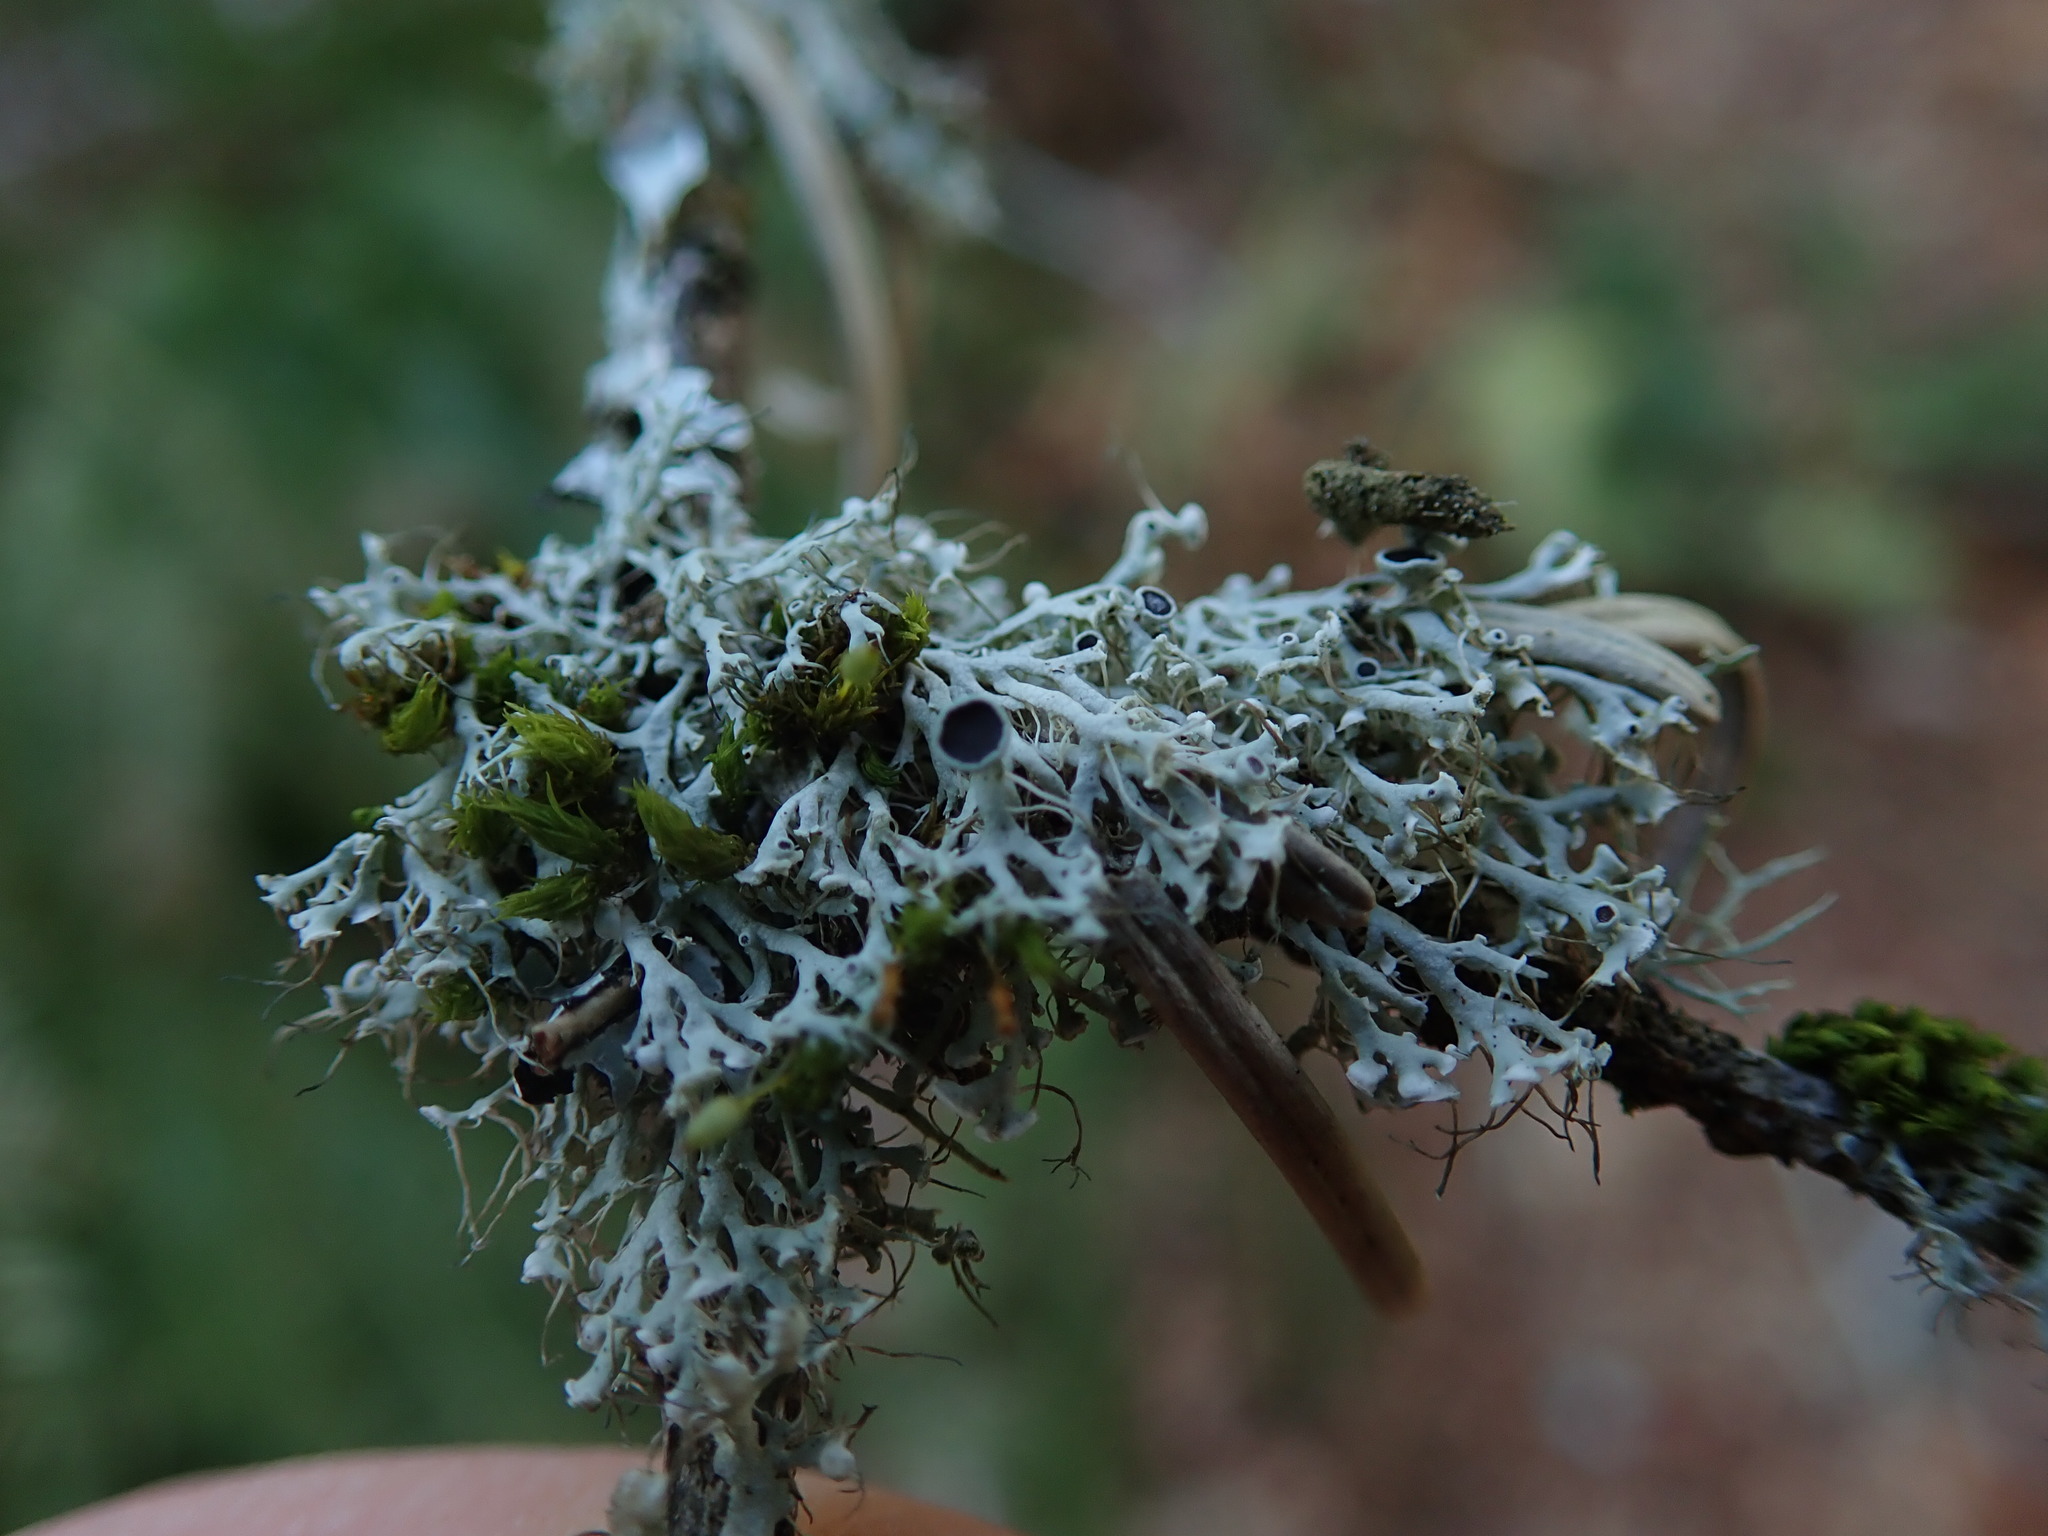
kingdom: Fungi
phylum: Ascomycota
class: Lecanoromycetes
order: Caliciales
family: Physciaceae
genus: Physcia
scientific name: Physcia tenella
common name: Fringed rosette lichen
